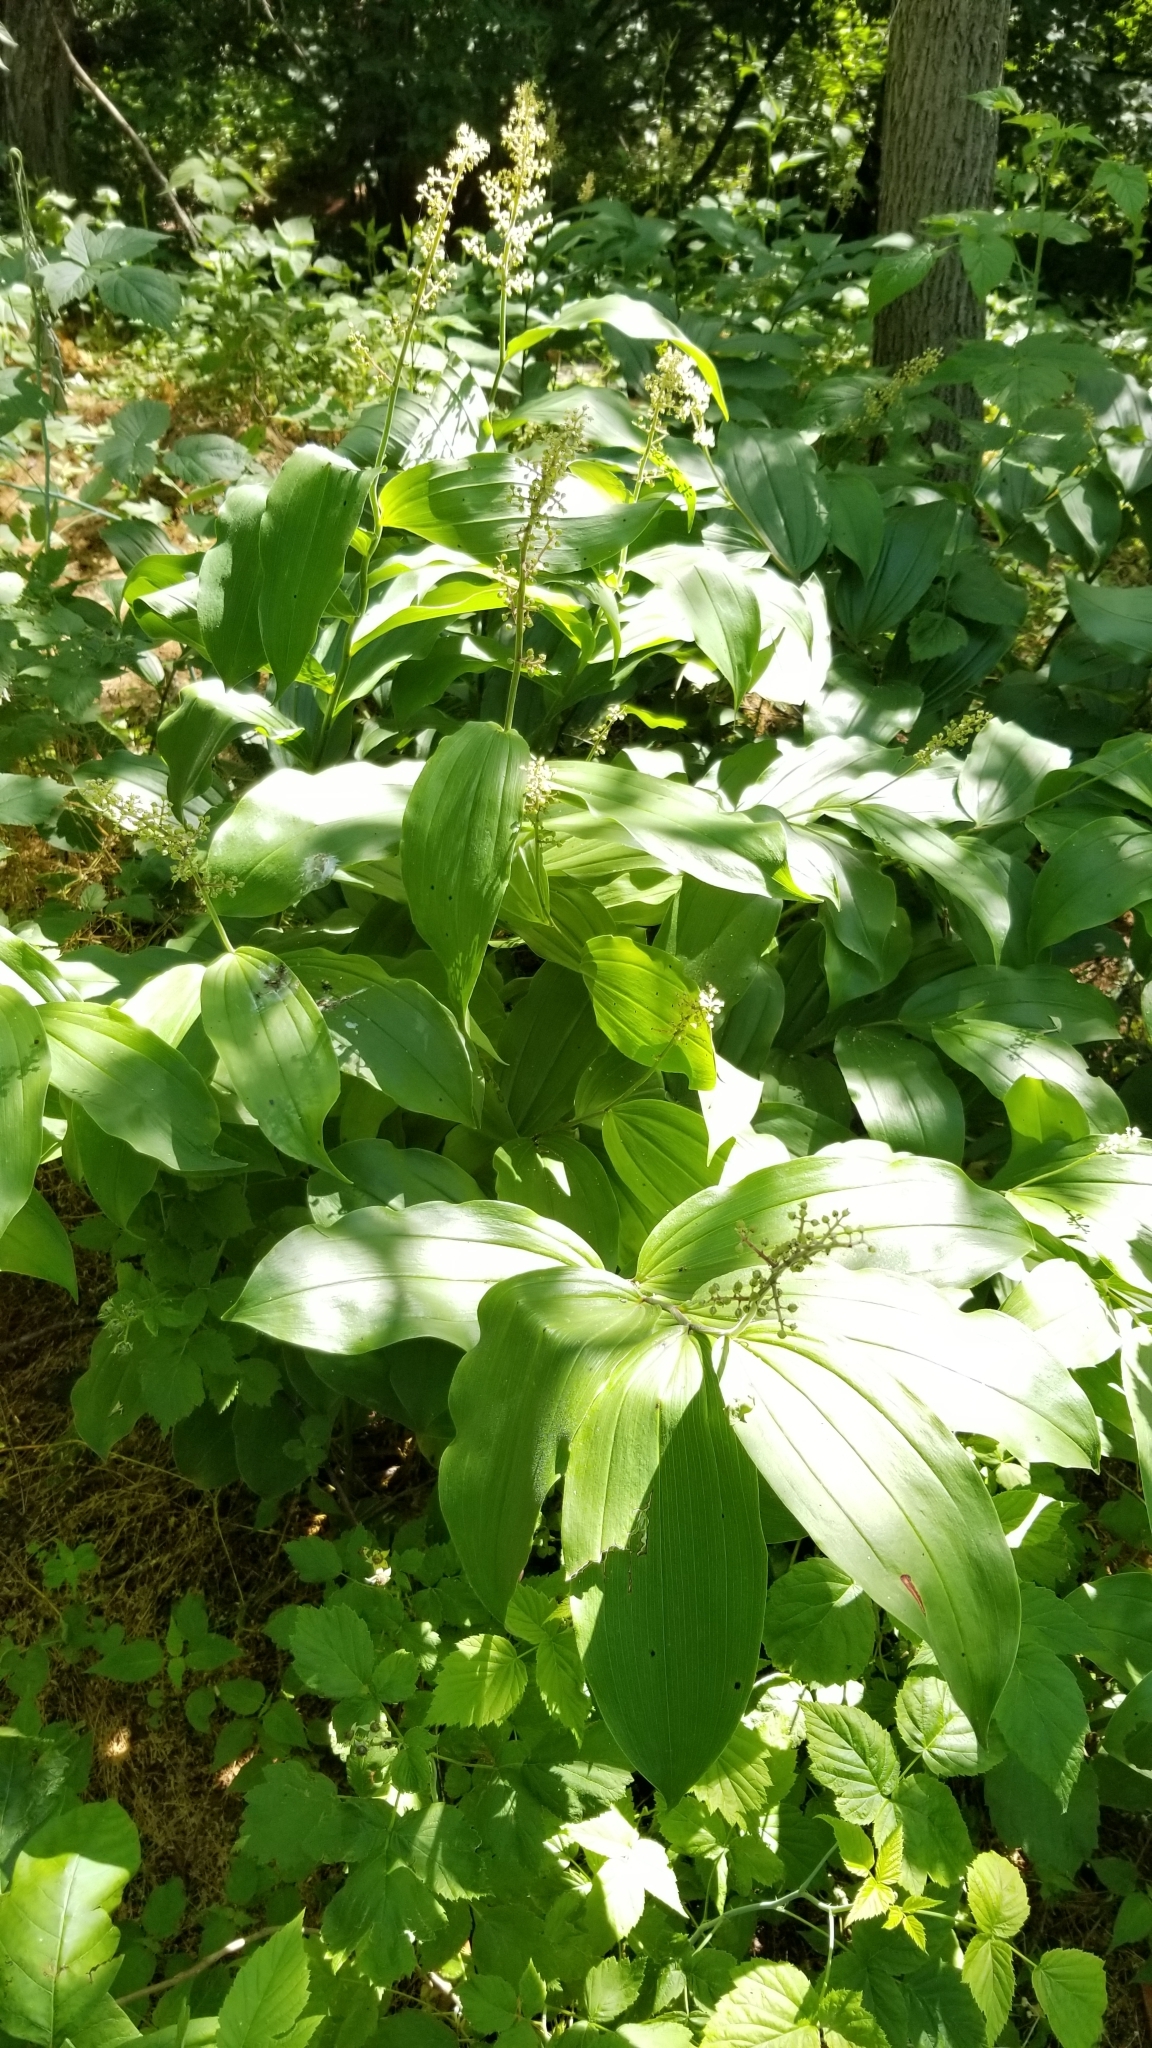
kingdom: Plantae
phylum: Tracheophyta
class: Liliopsida
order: Asparagales
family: Asparagaceae
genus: Maianthemum
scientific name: Maianthemum racemosum
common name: False spikenard
